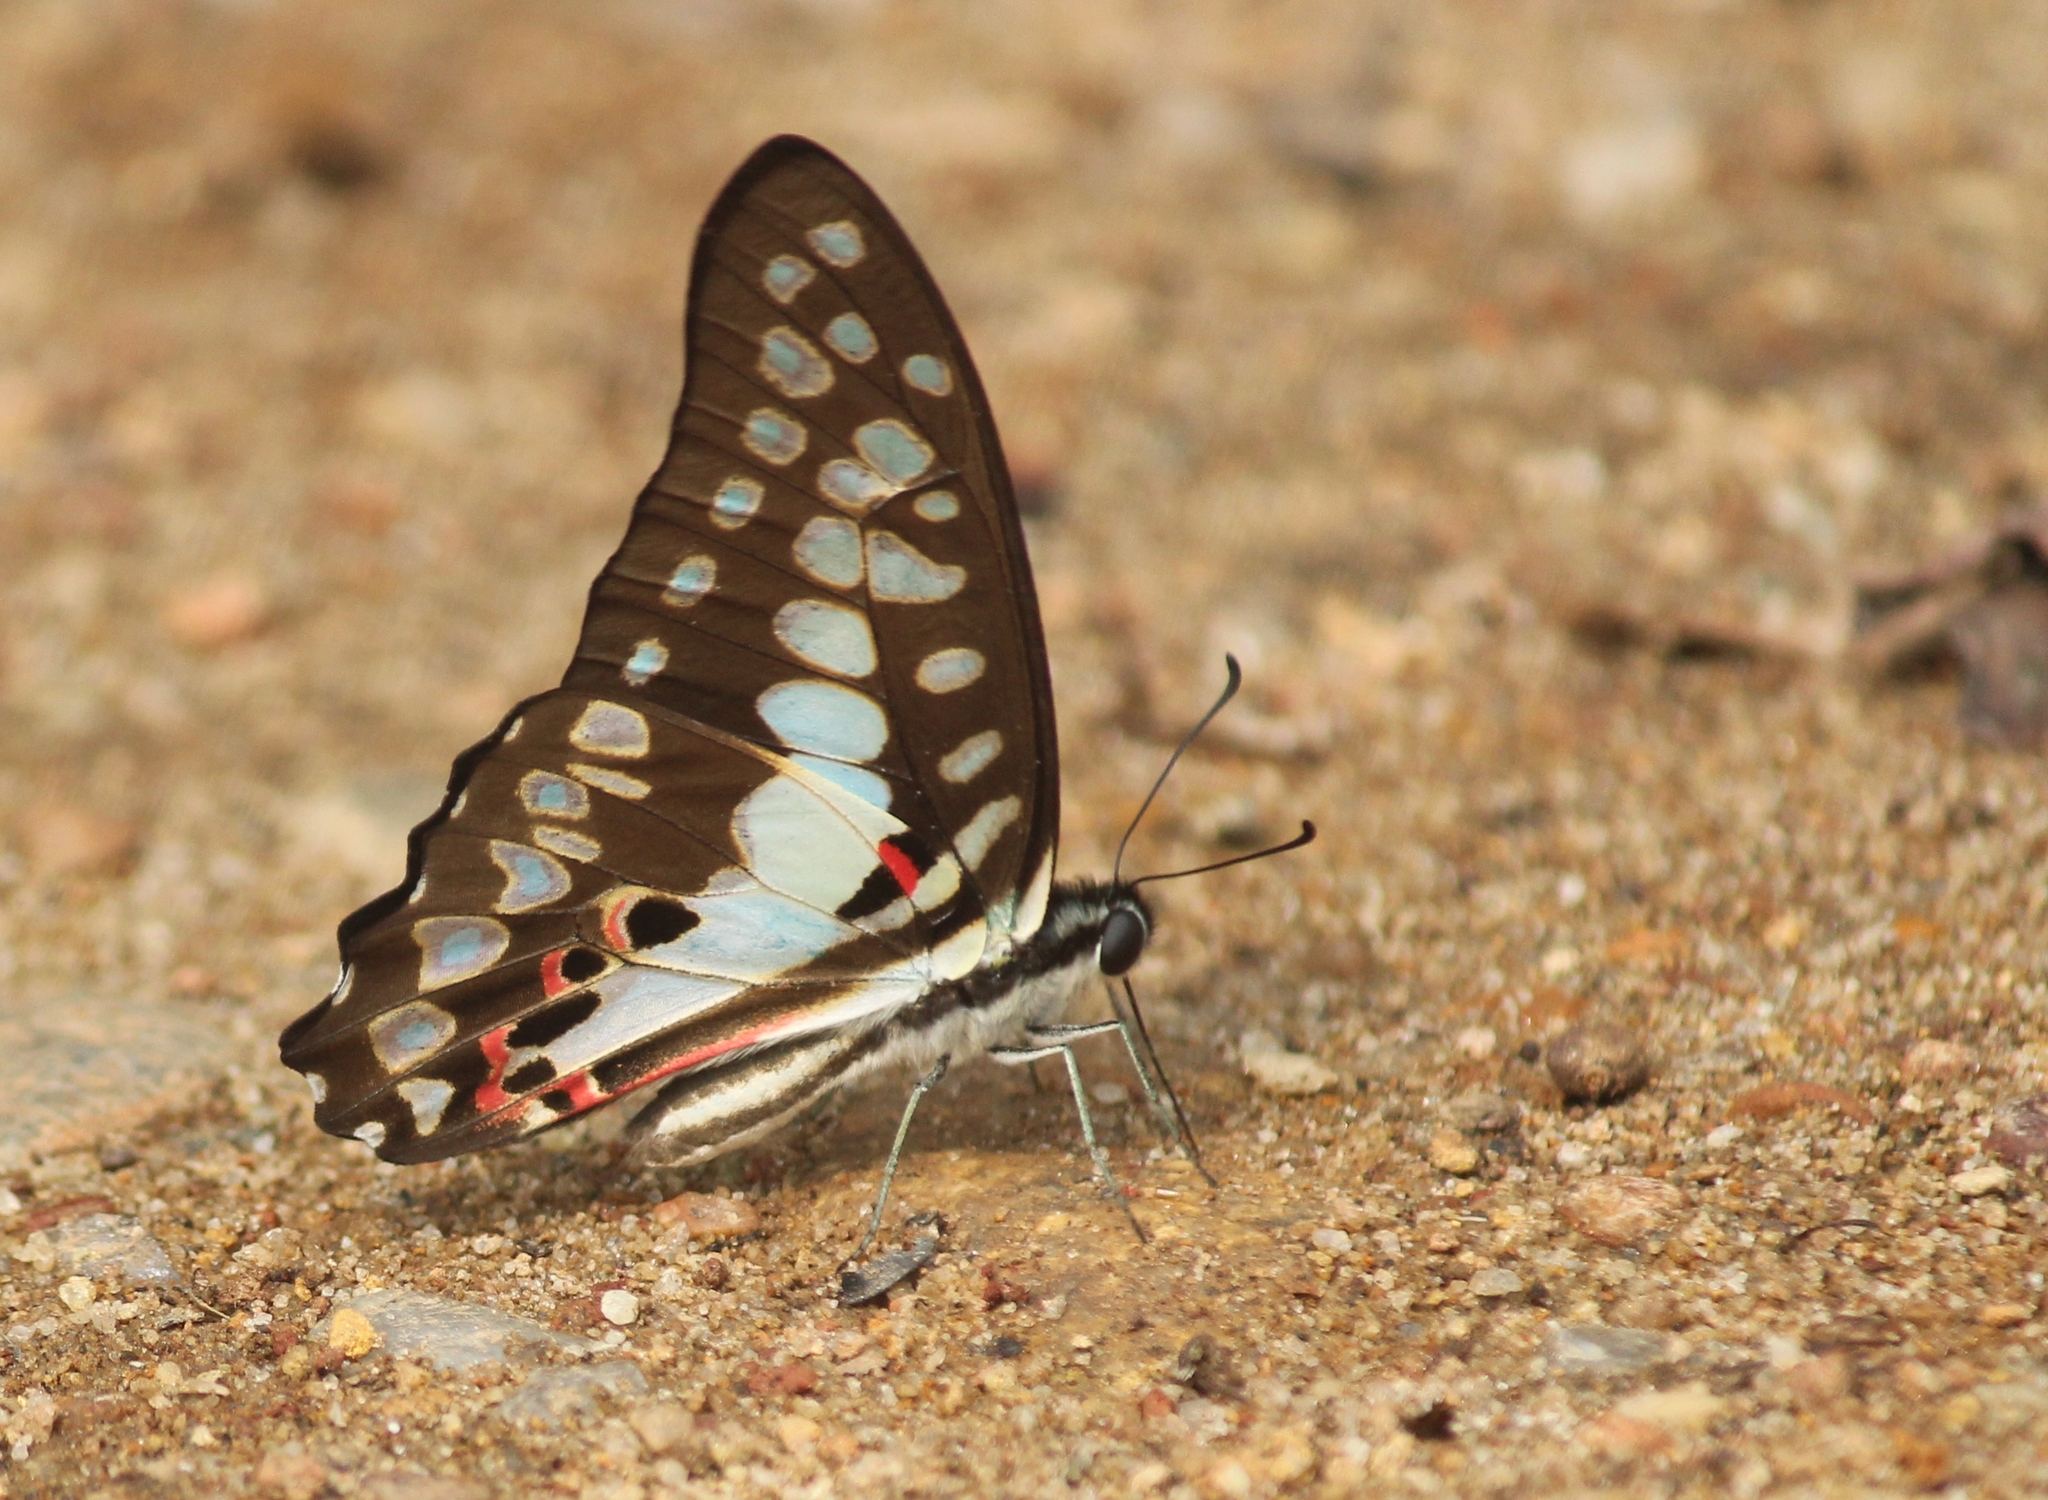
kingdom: Animalia
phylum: Arthropoda
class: Insecta
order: Lepidoptera
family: Papilionidae
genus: Graphium
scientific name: Graphium doson
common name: Common jay
